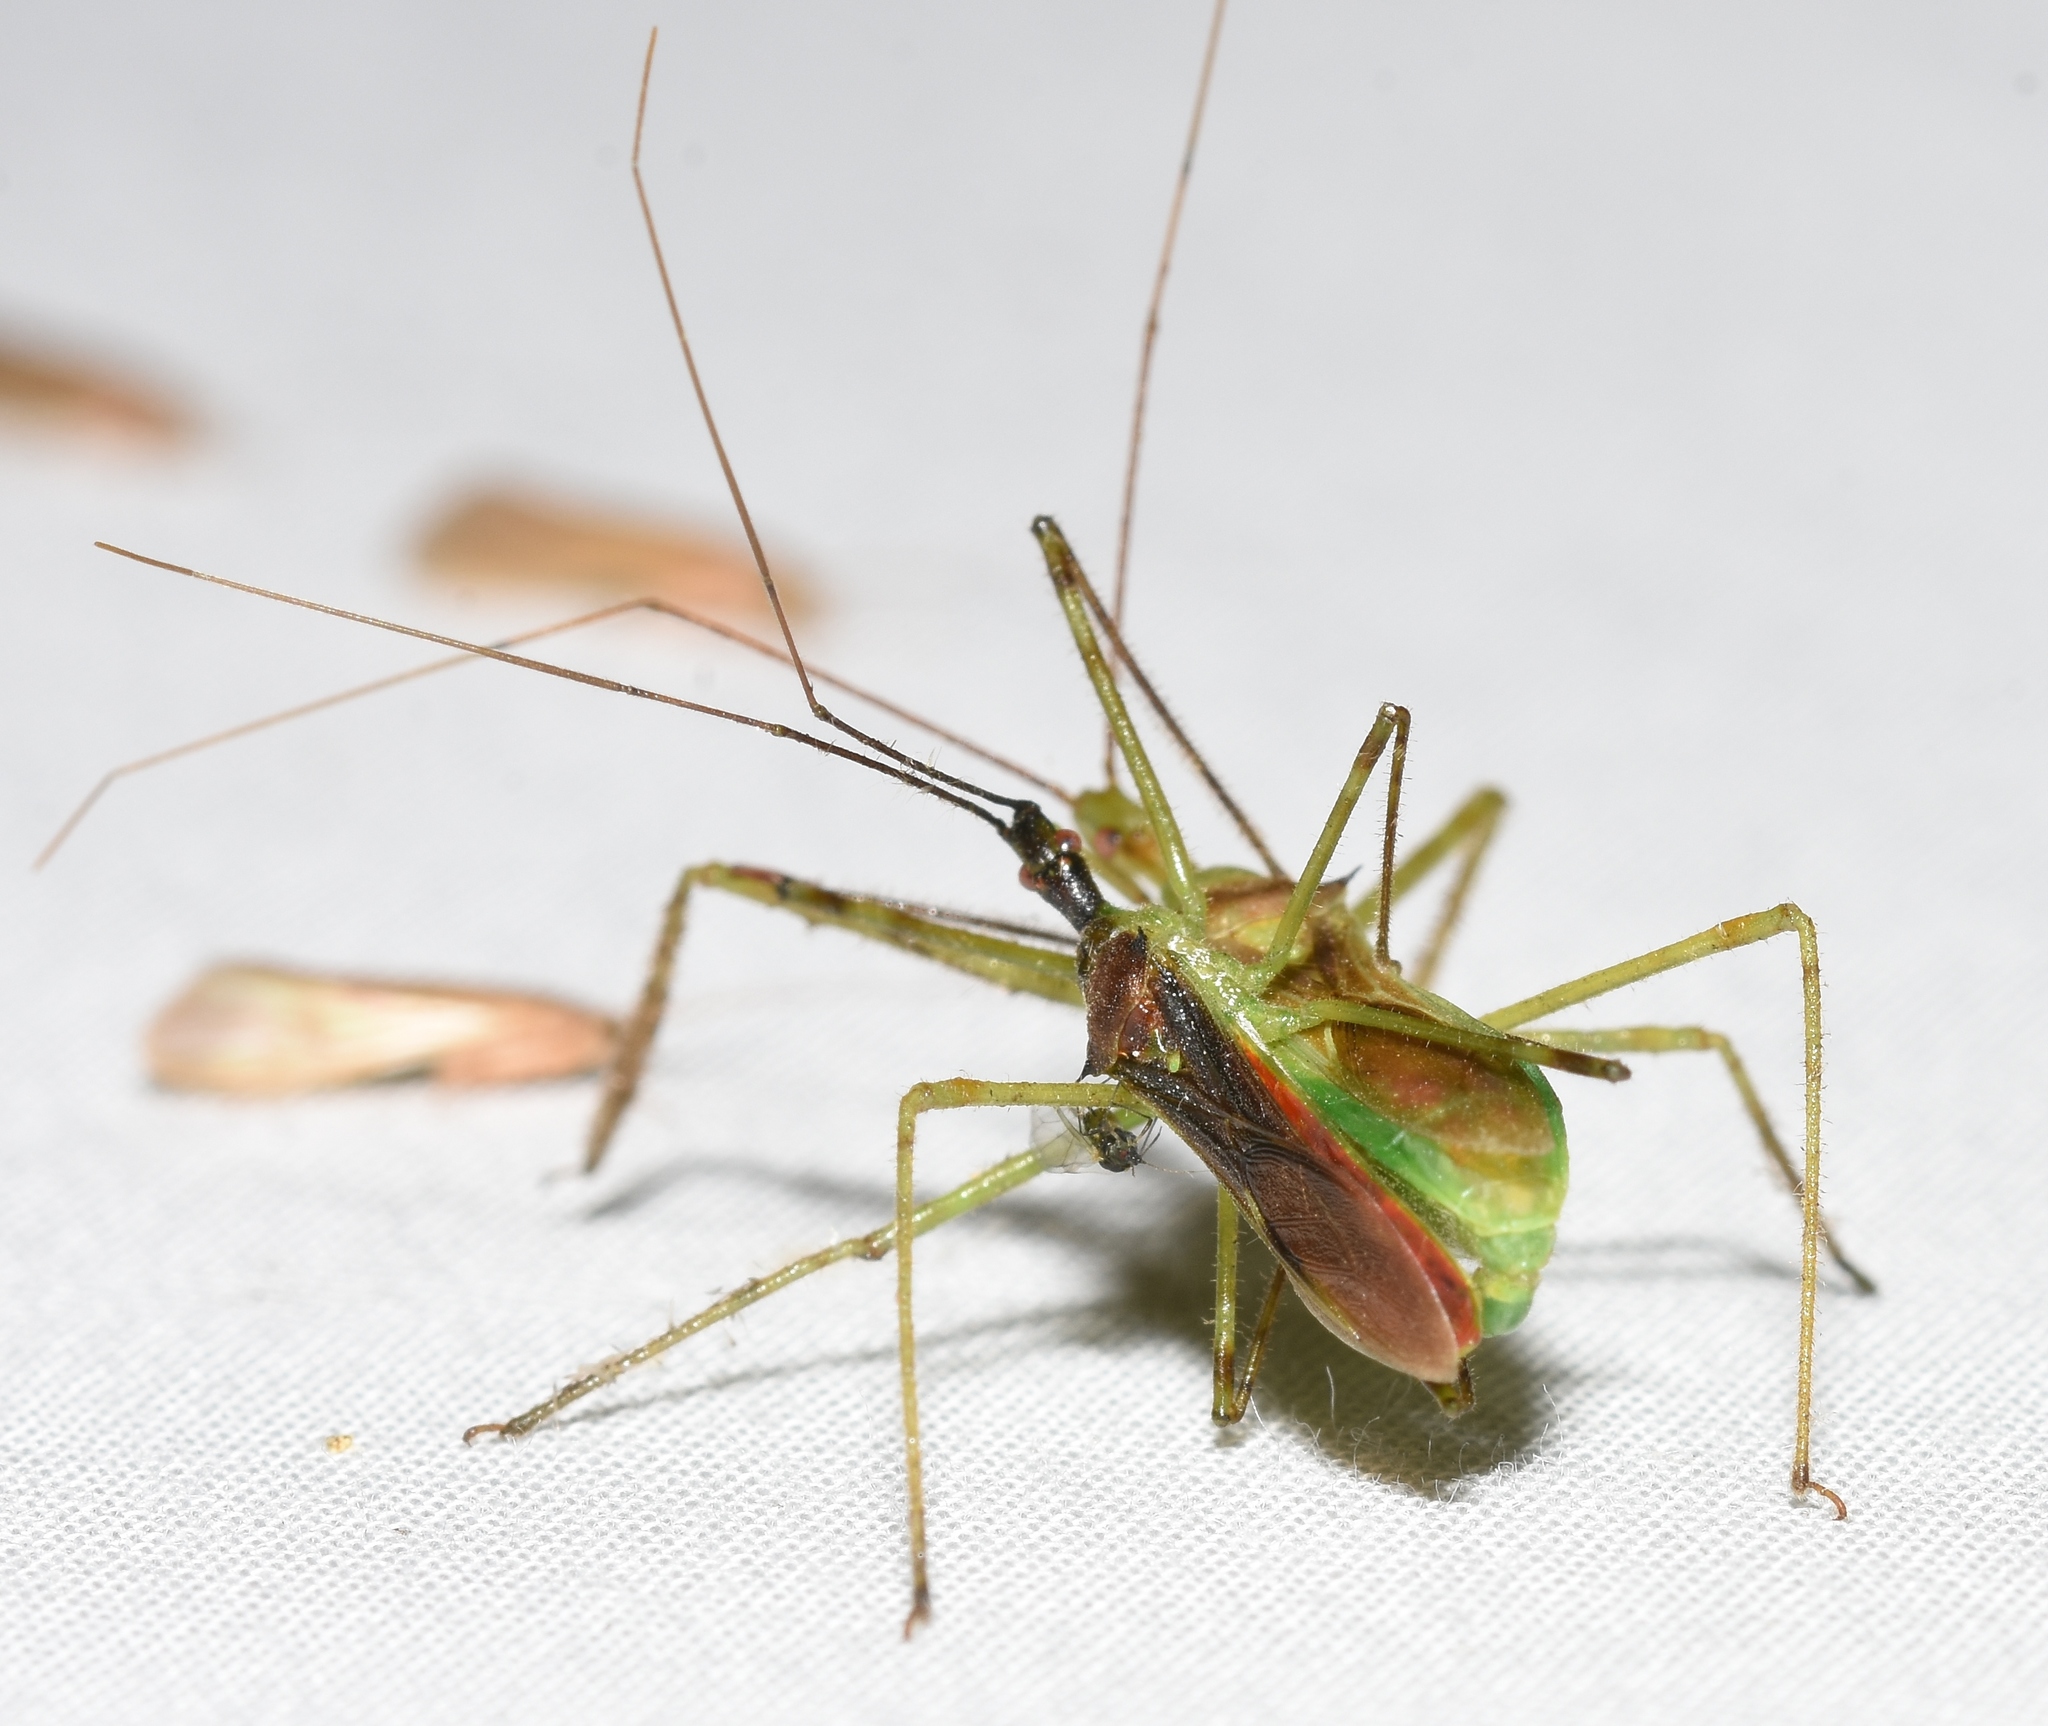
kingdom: Animalia
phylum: Arthropoda
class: Insecta
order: Hemiptera
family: Reduviidae
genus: Zelus
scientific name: Zelus luridus
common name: Pale green assassin bug
